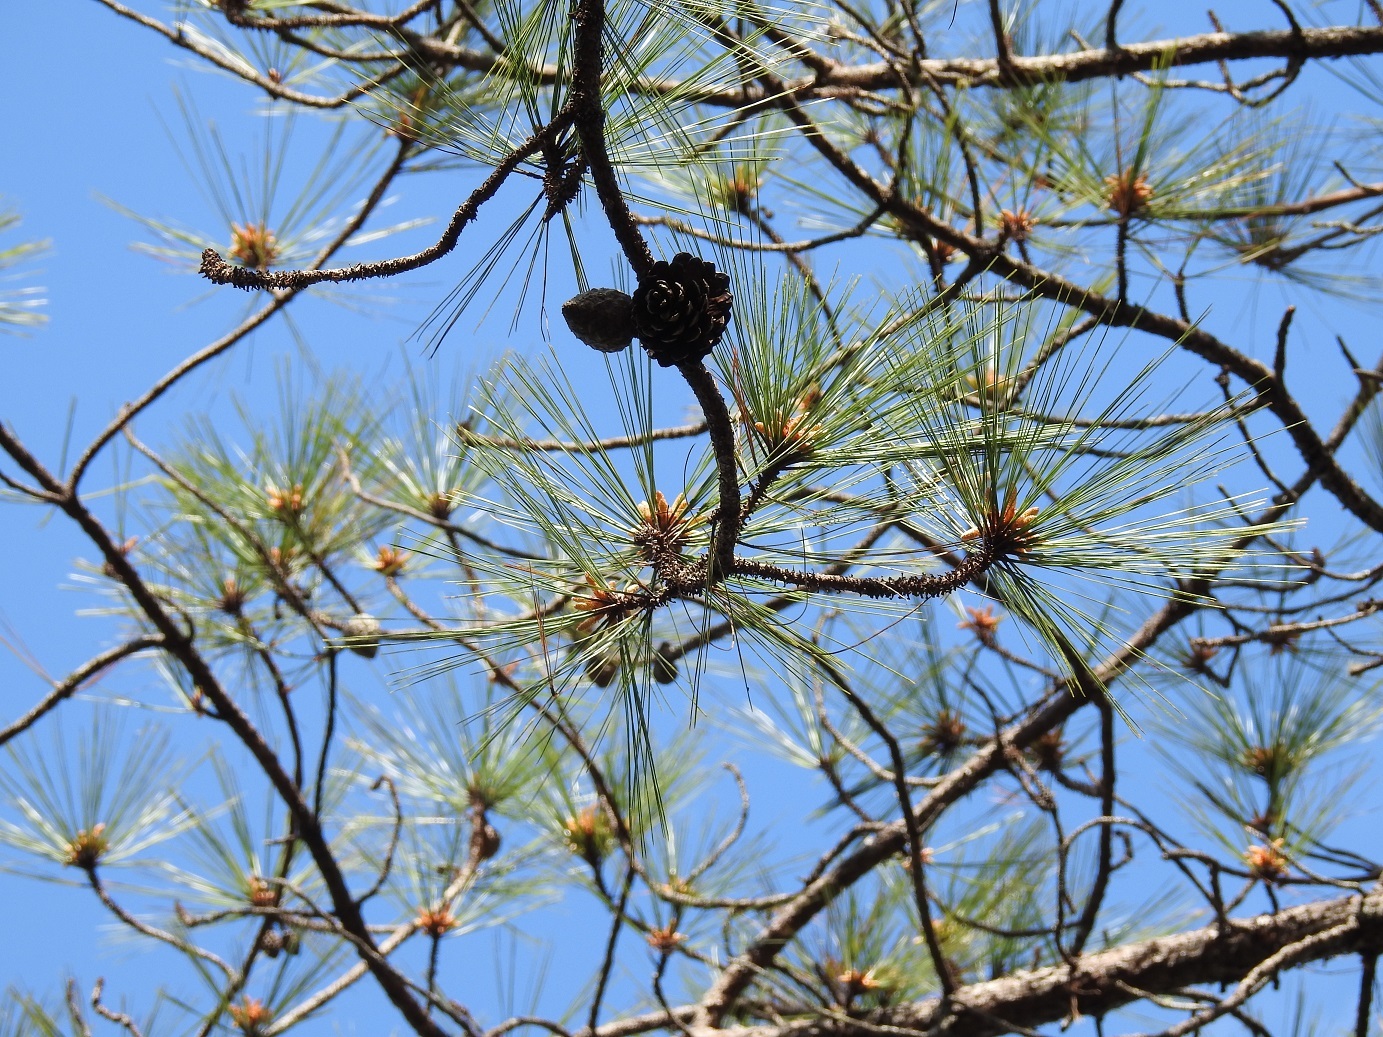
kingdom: Plantae
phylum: Tracheophyta
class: Pinopsida
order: Pinales
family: Pinaceae
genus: Pinus
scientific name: Pinus oocarpa
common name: Egg-cone pine
